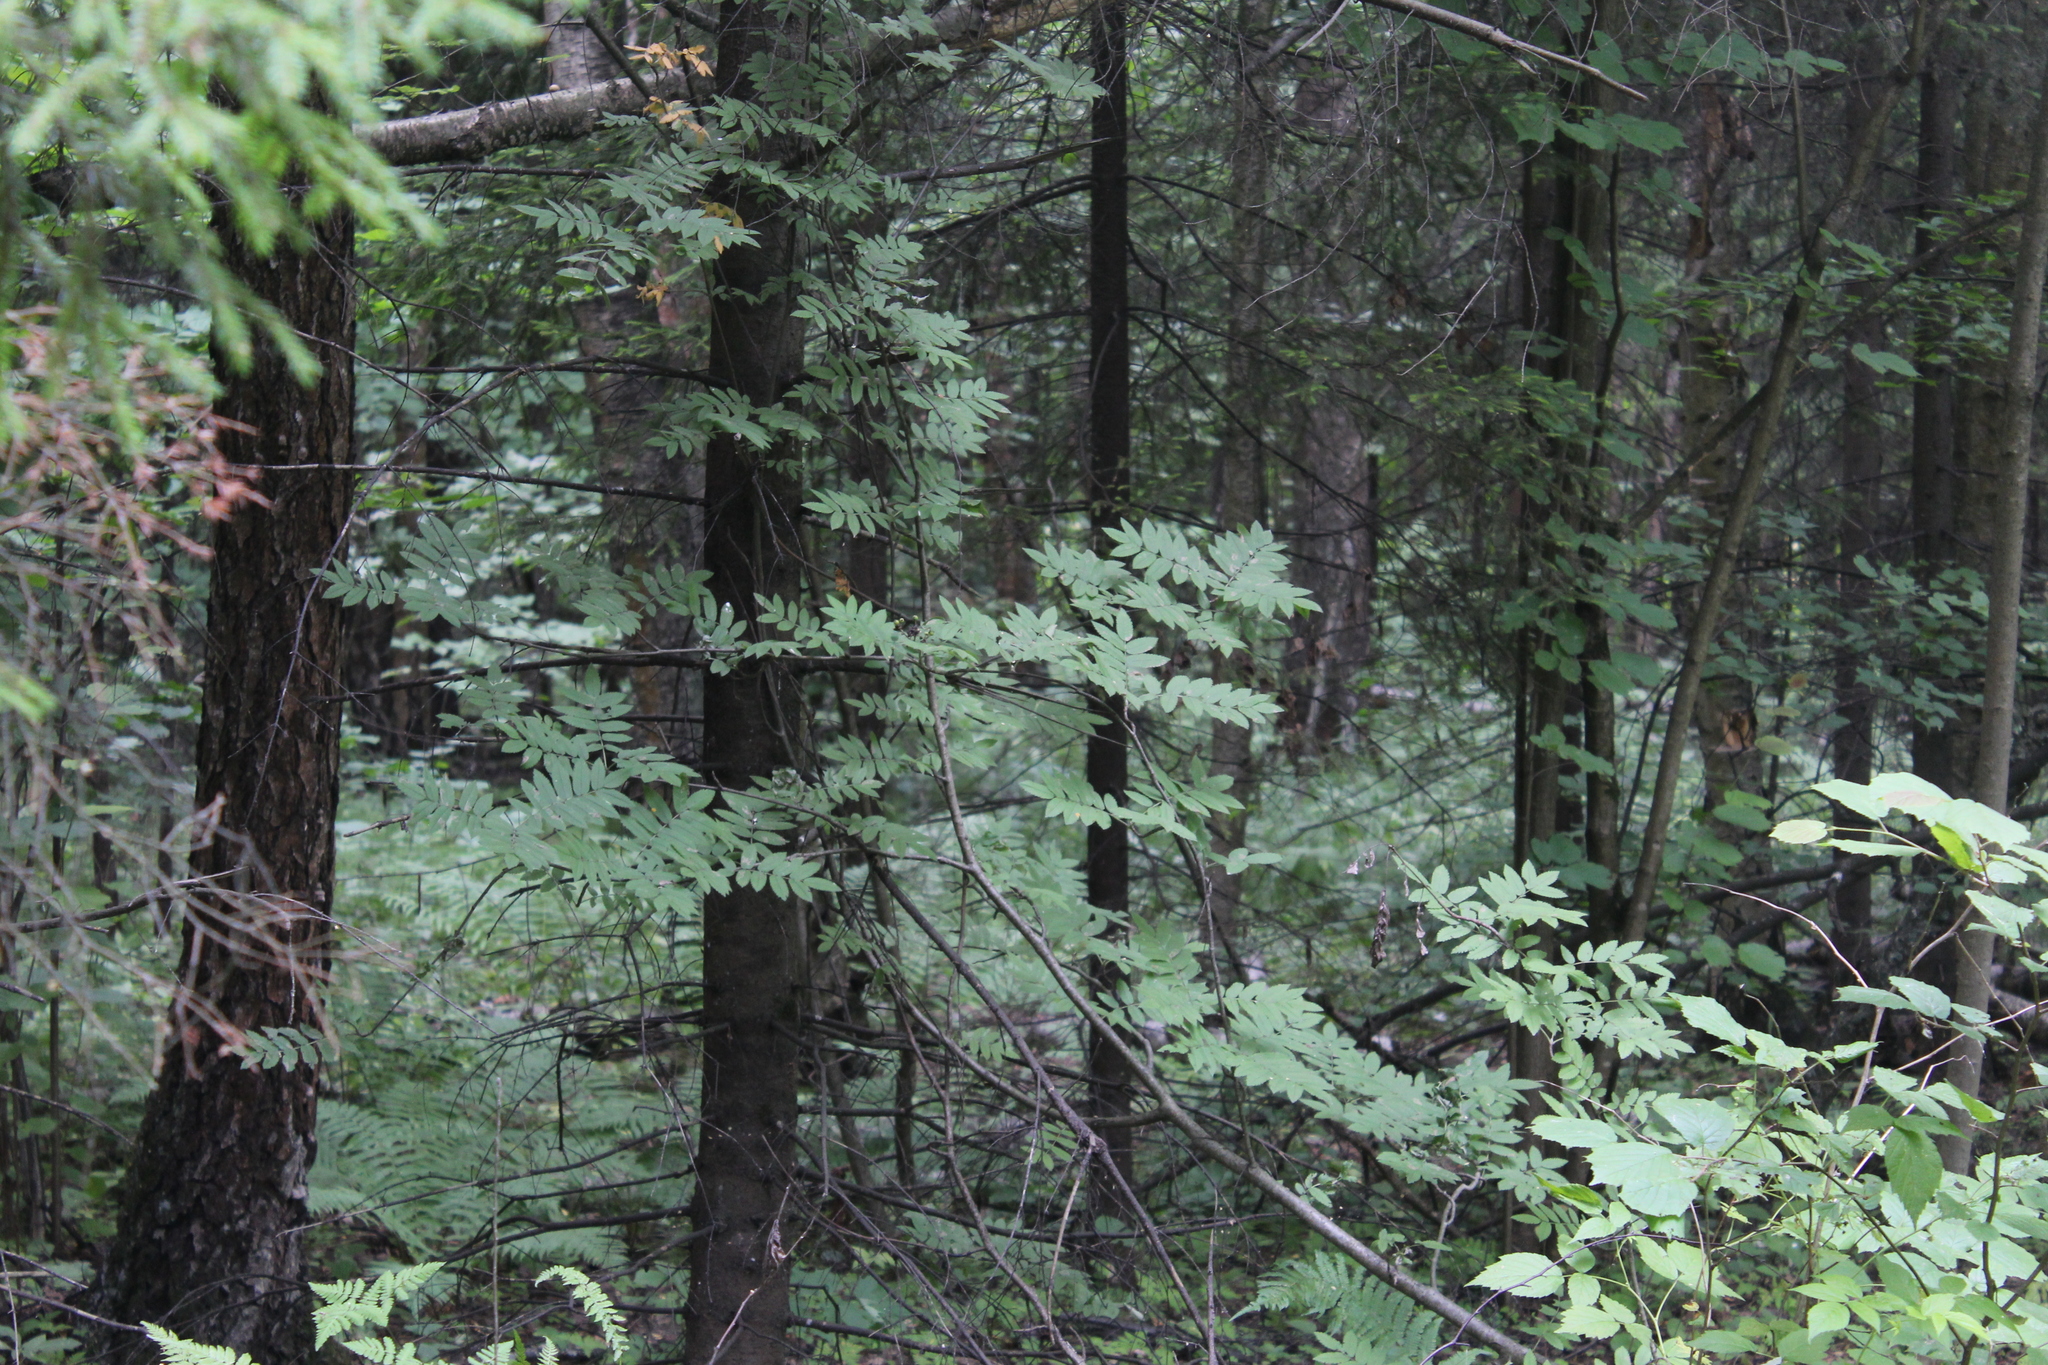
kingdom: Plantae
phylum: Tracheophyta
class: Magnoliopsida
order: Rosales
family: Rosaceae
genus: Sorbus
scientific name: Sorbus aucuparia
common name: Rowan
